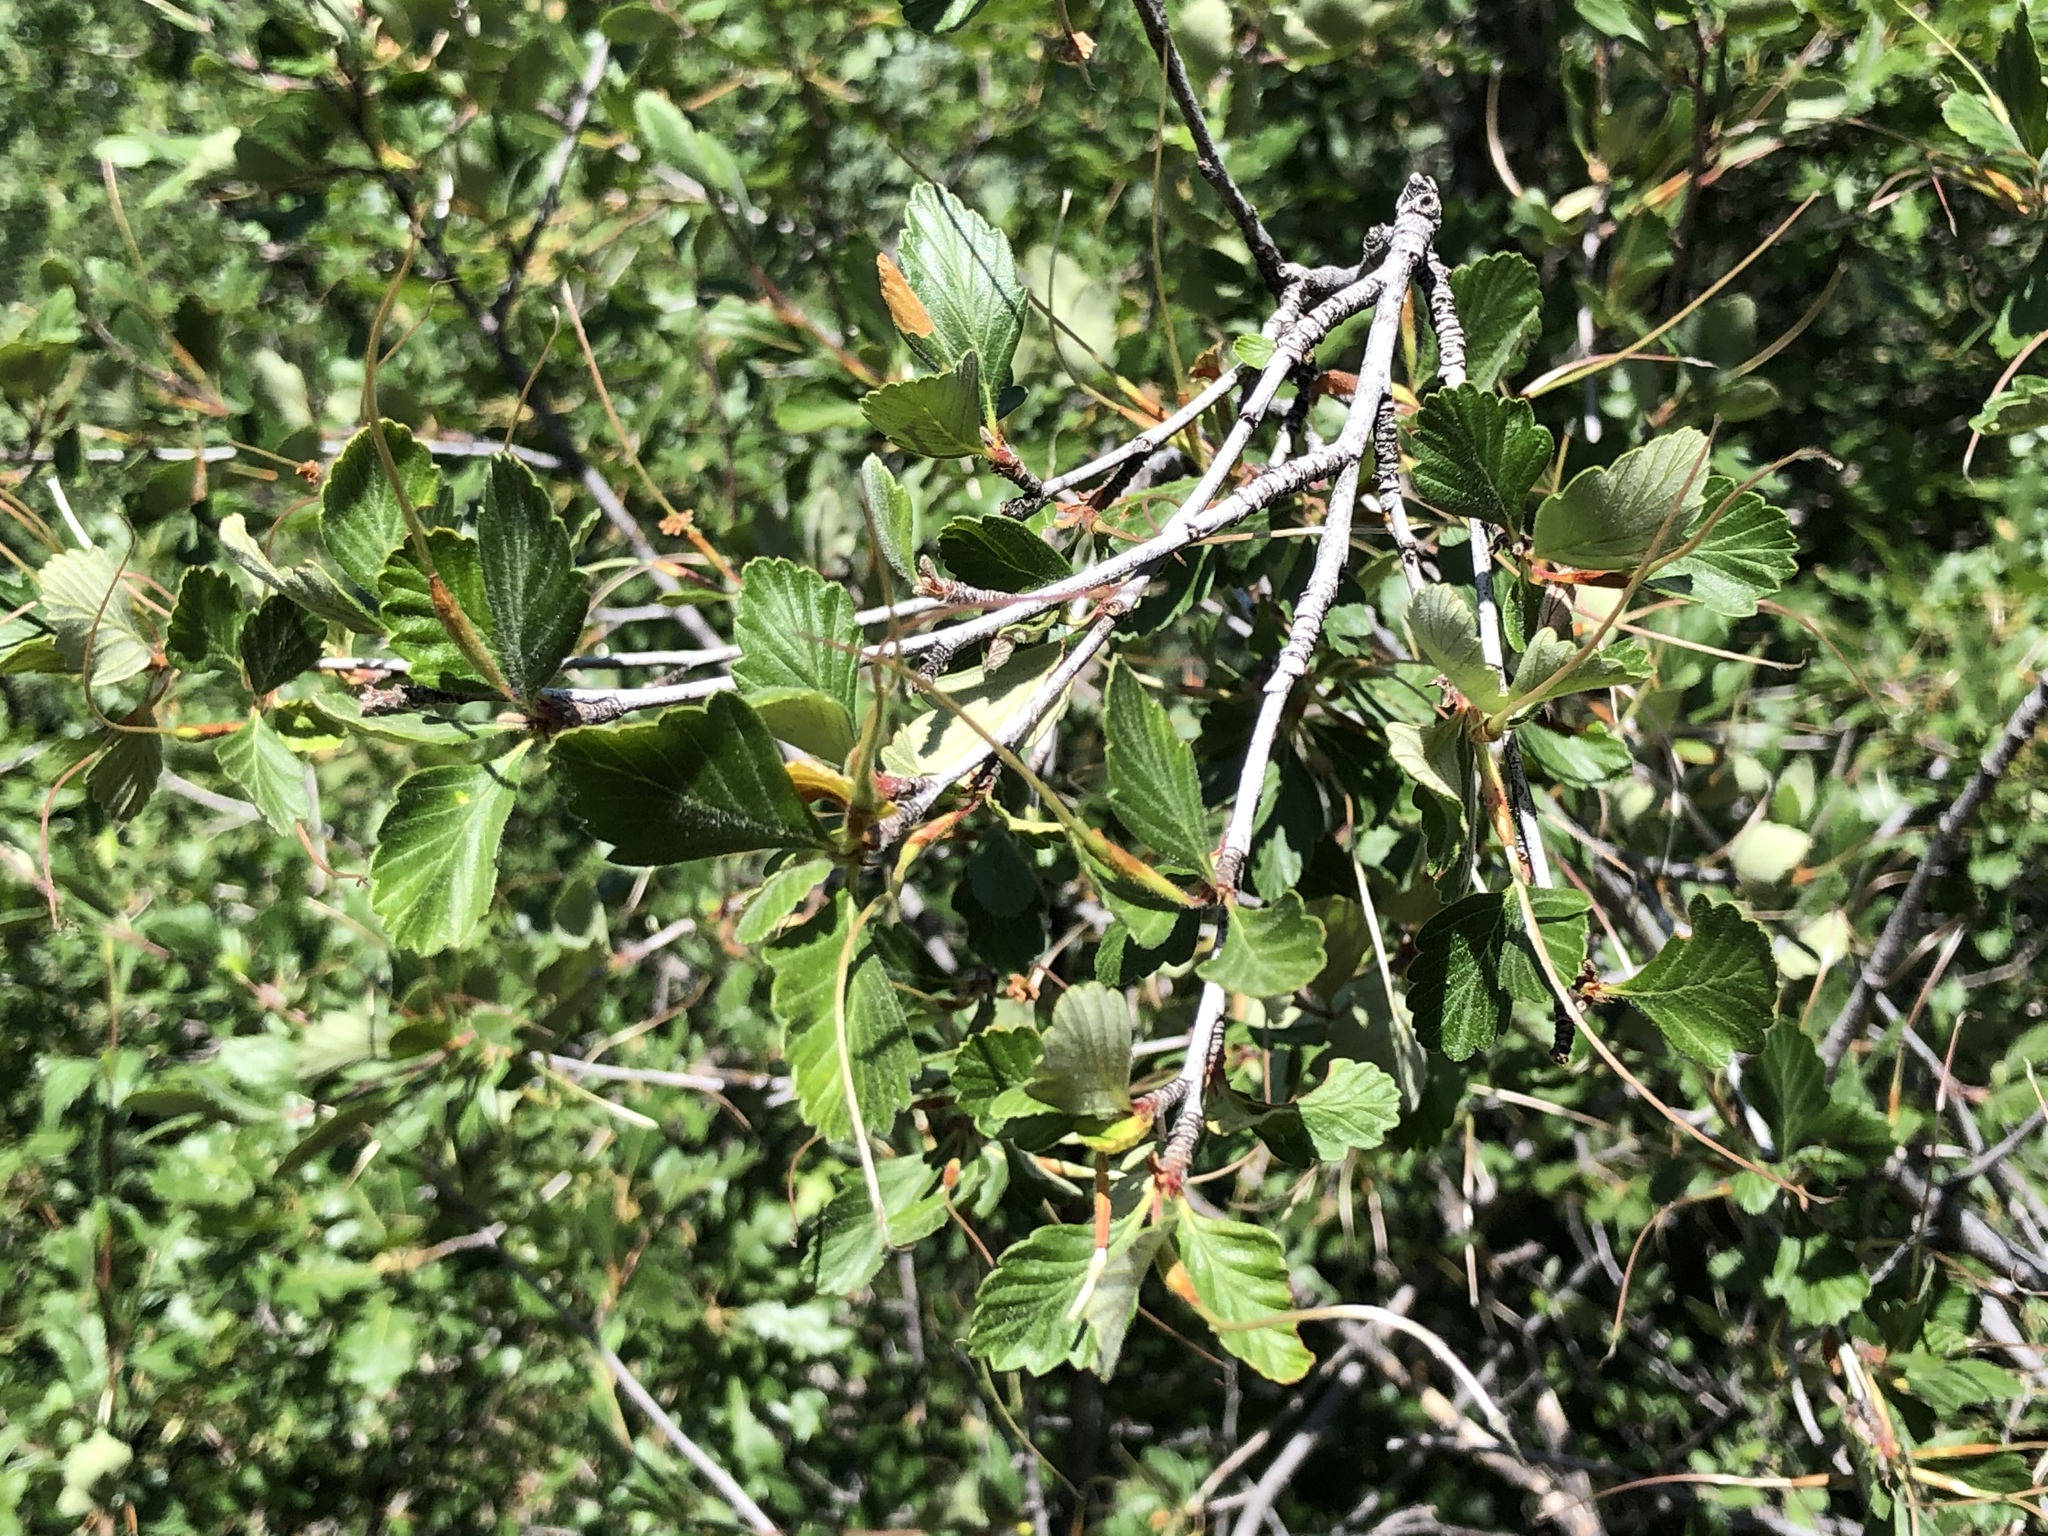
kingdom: Plantae
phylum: Tracheophyta
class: Magnoliopsida
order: Rosales
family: Rosaceae
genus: Cercocarpus
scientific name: Cercocarpus montanus
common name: Alder-leaf cercocarpus
